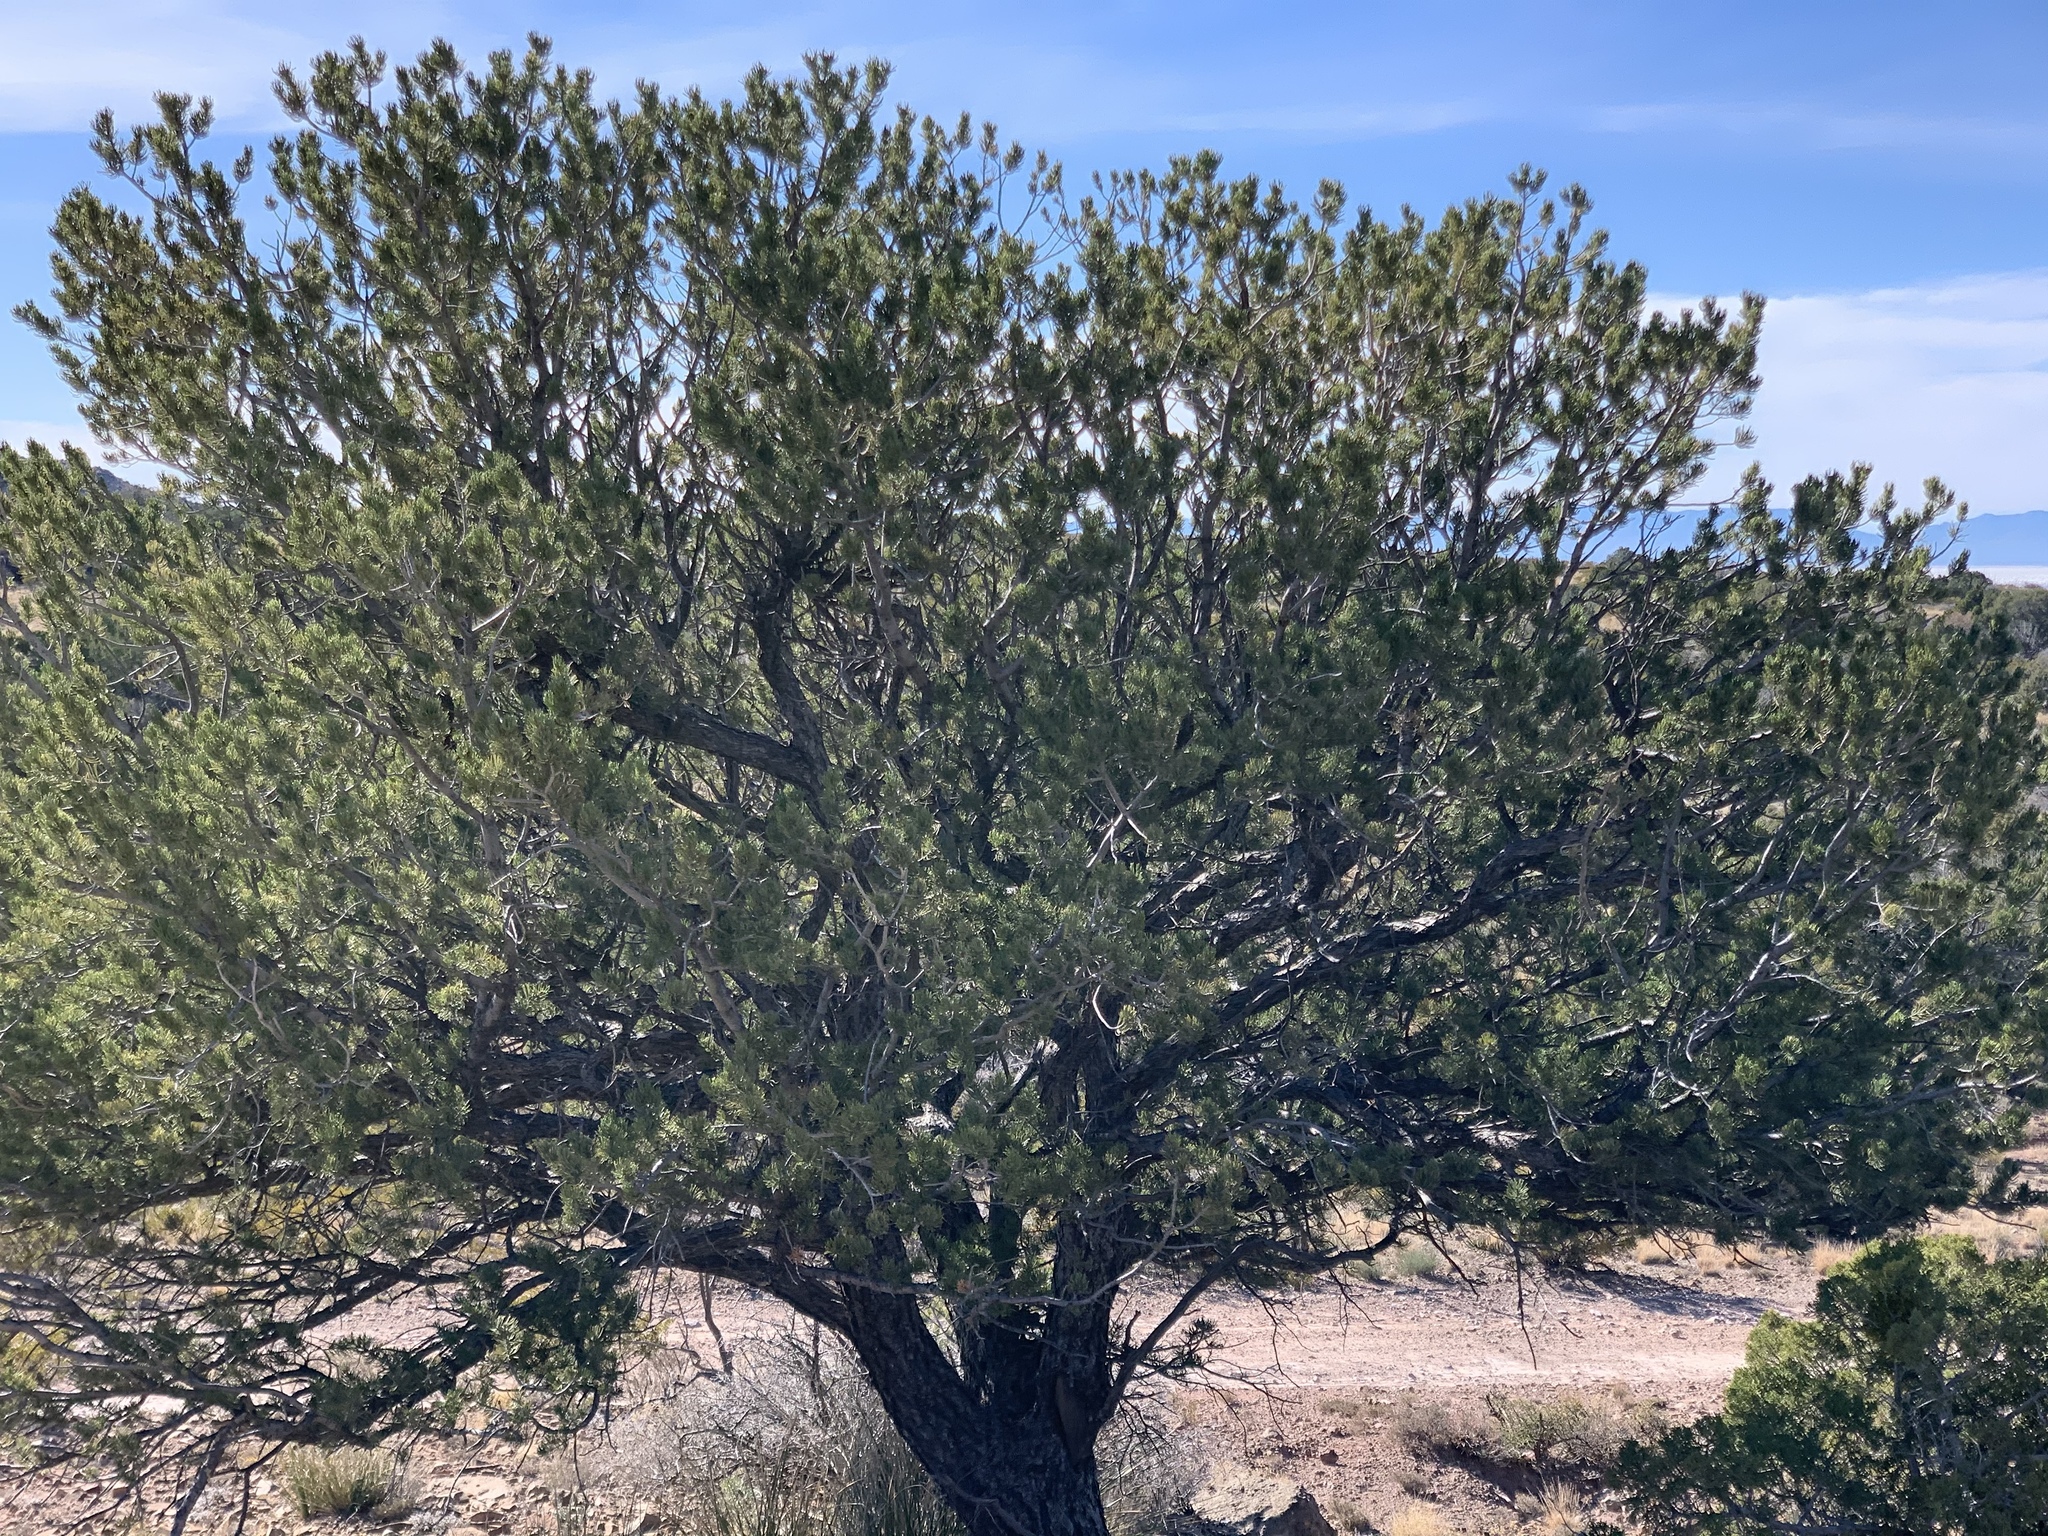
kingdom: Plantae
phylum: Tracheophyta
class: Pinopsida
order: Pinales
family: Pinaceae
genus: Pinus
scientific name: Pinus edulis
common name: Colorado pinyon
